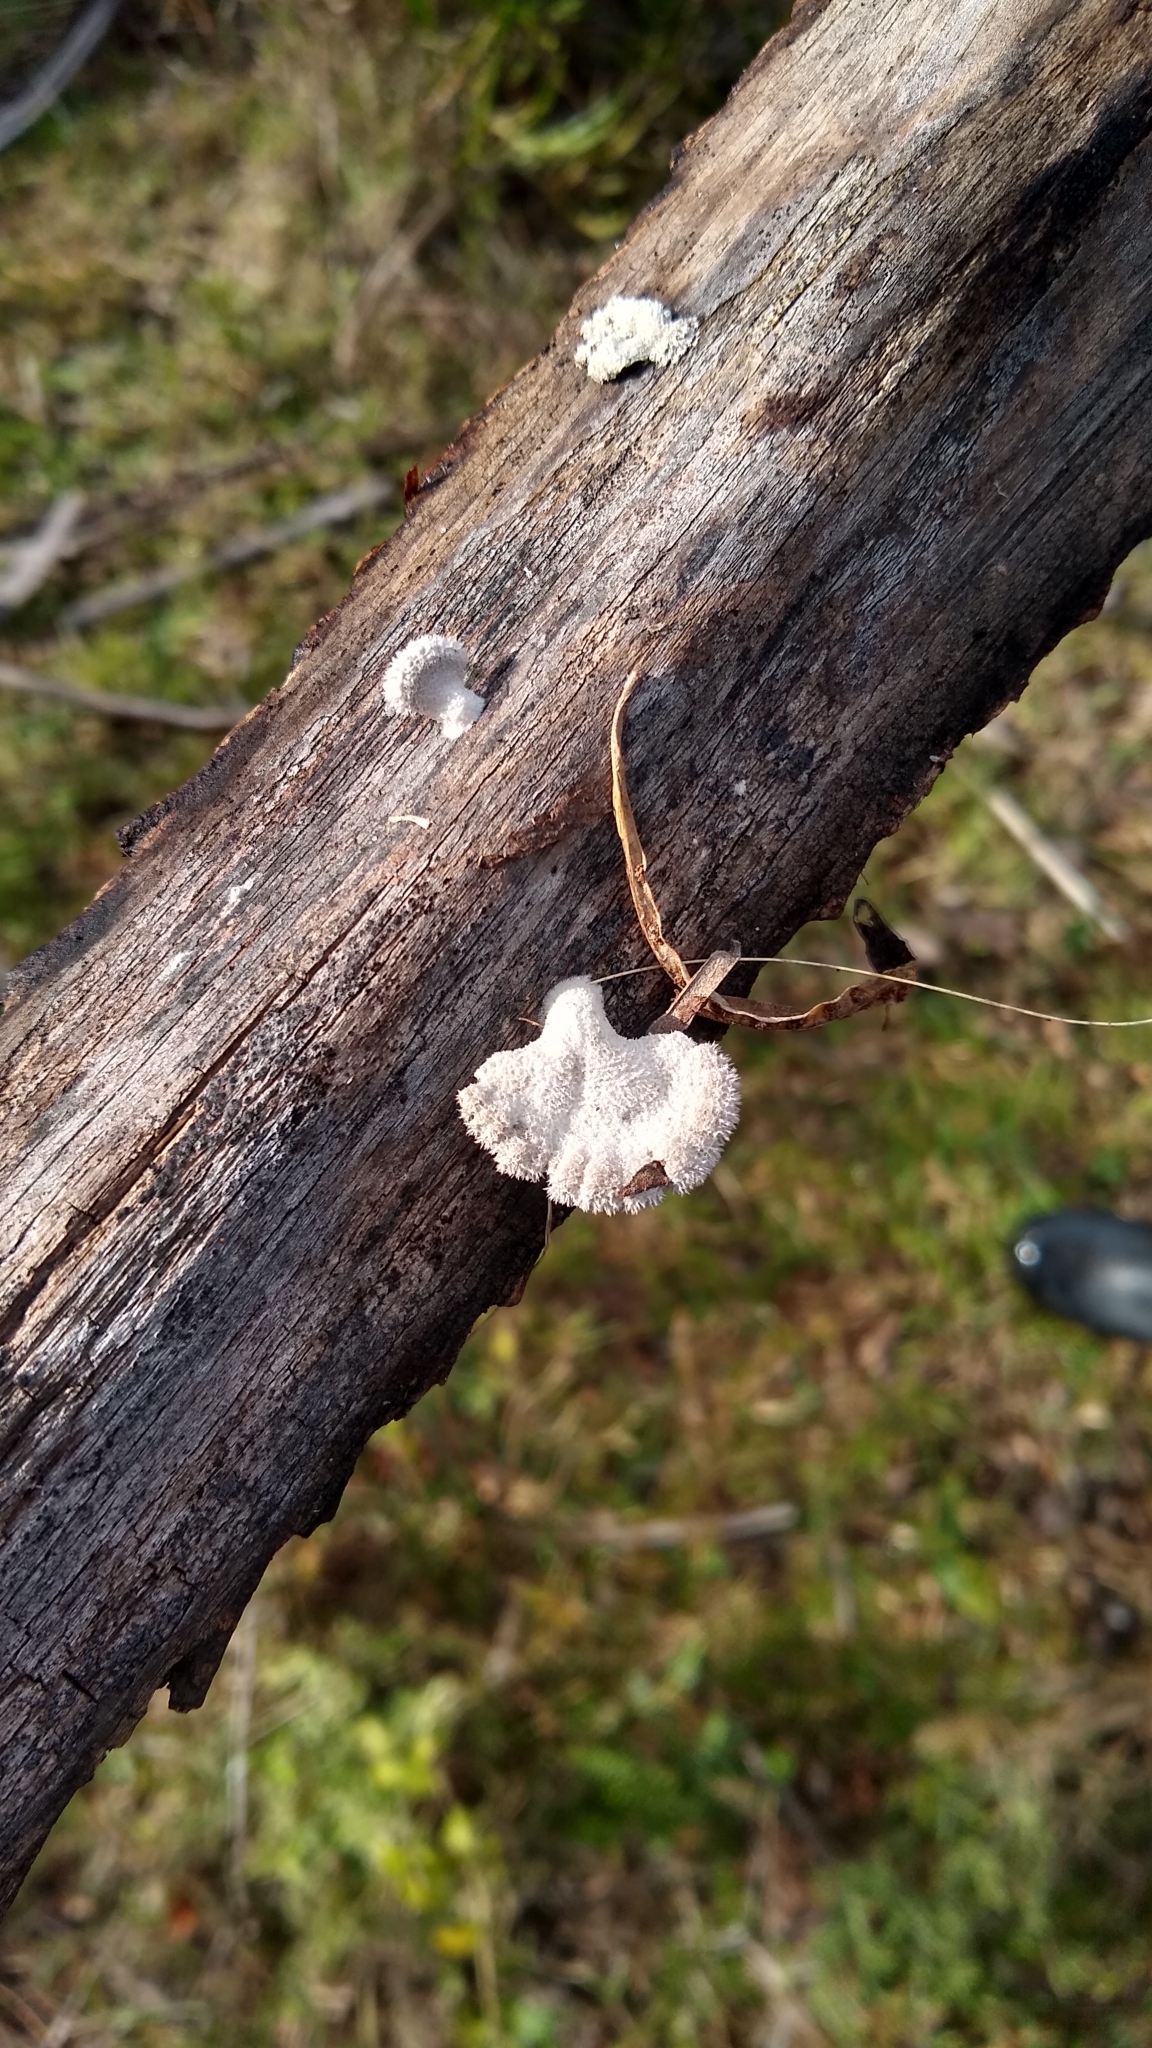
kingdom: Fungi
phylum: Basidiomycota
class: Agaricomycetes
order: Agaricales
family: Schizophyllaceae
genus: Schizophyllum
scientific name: Schizophyllum commune
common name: Common porecrust
